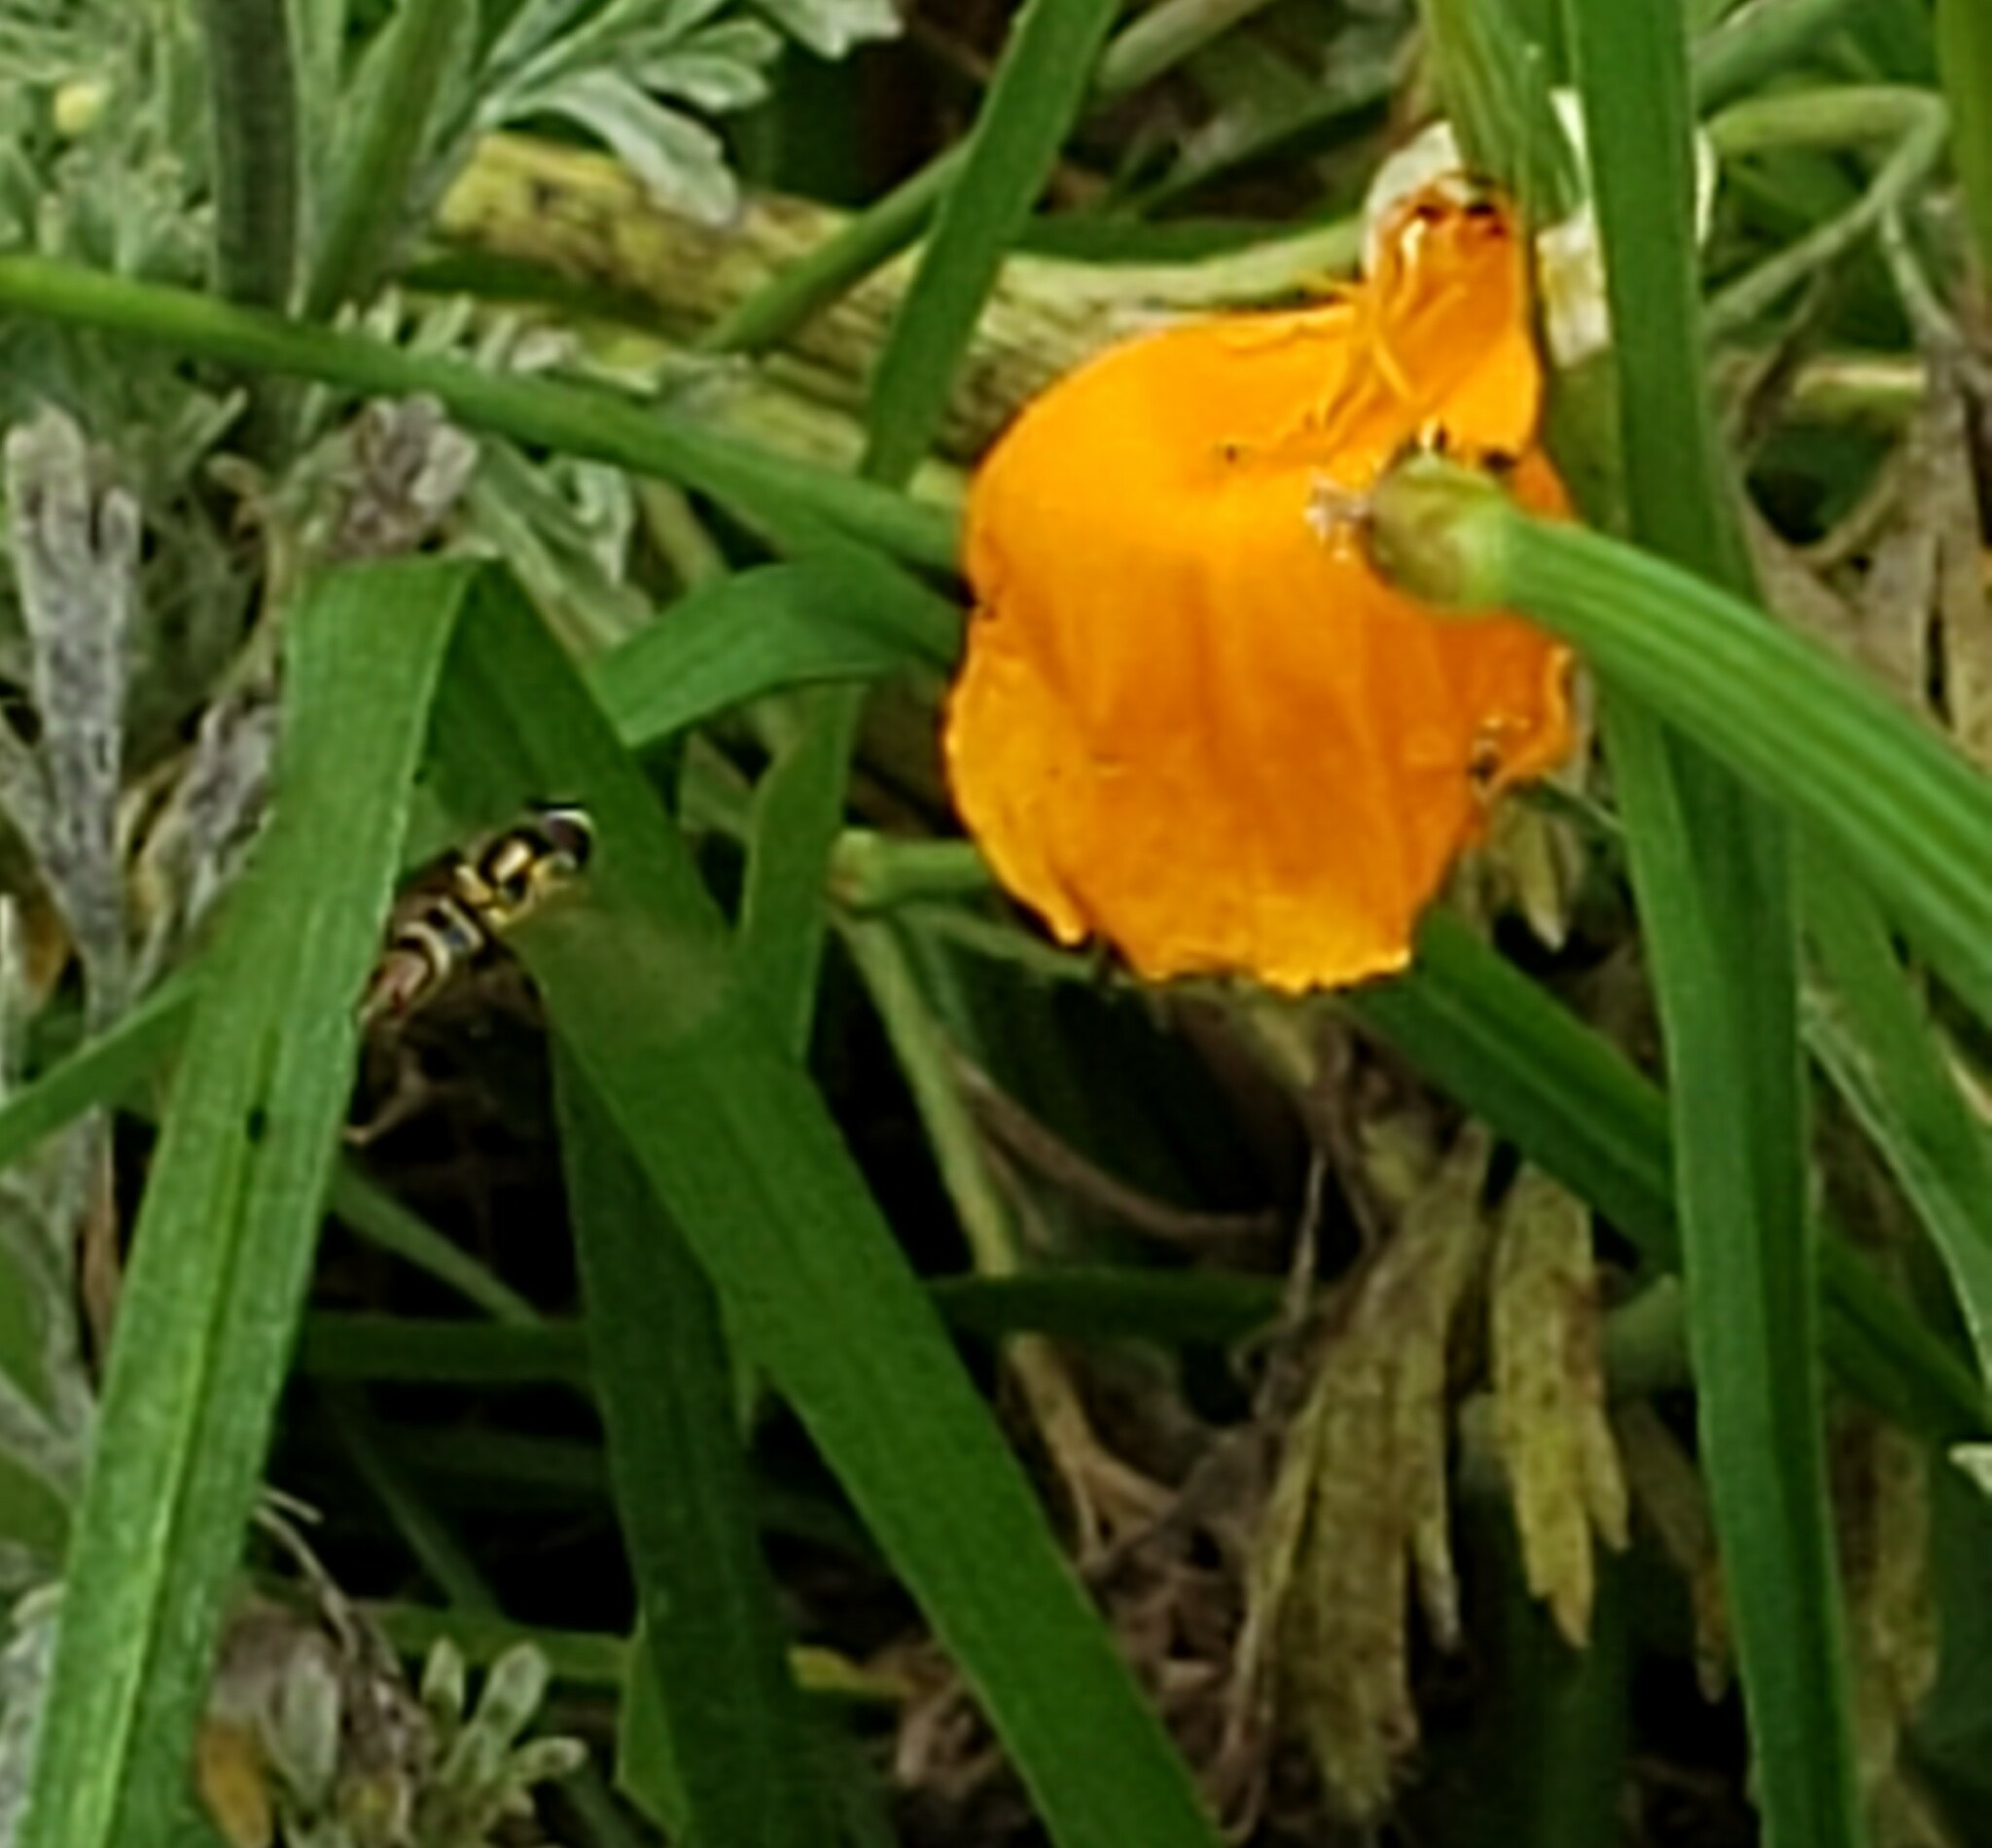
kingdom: Animalia
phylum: Arthropoda
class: Insecta
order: Diptera
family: Syrphidae
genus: Allograpta
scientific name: Allograpta
